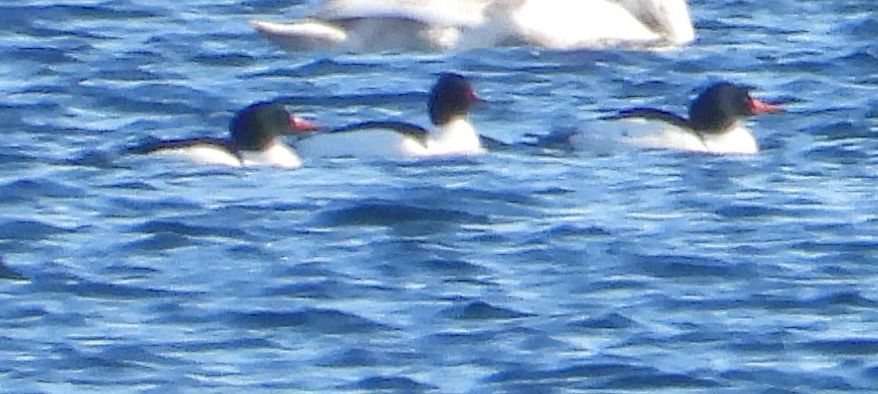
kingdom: Animalia
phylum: Chordata
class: Aves
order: Anseriformes
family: Anatidae
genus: Mergus
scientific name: Mergus merganser
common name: Common merganser
